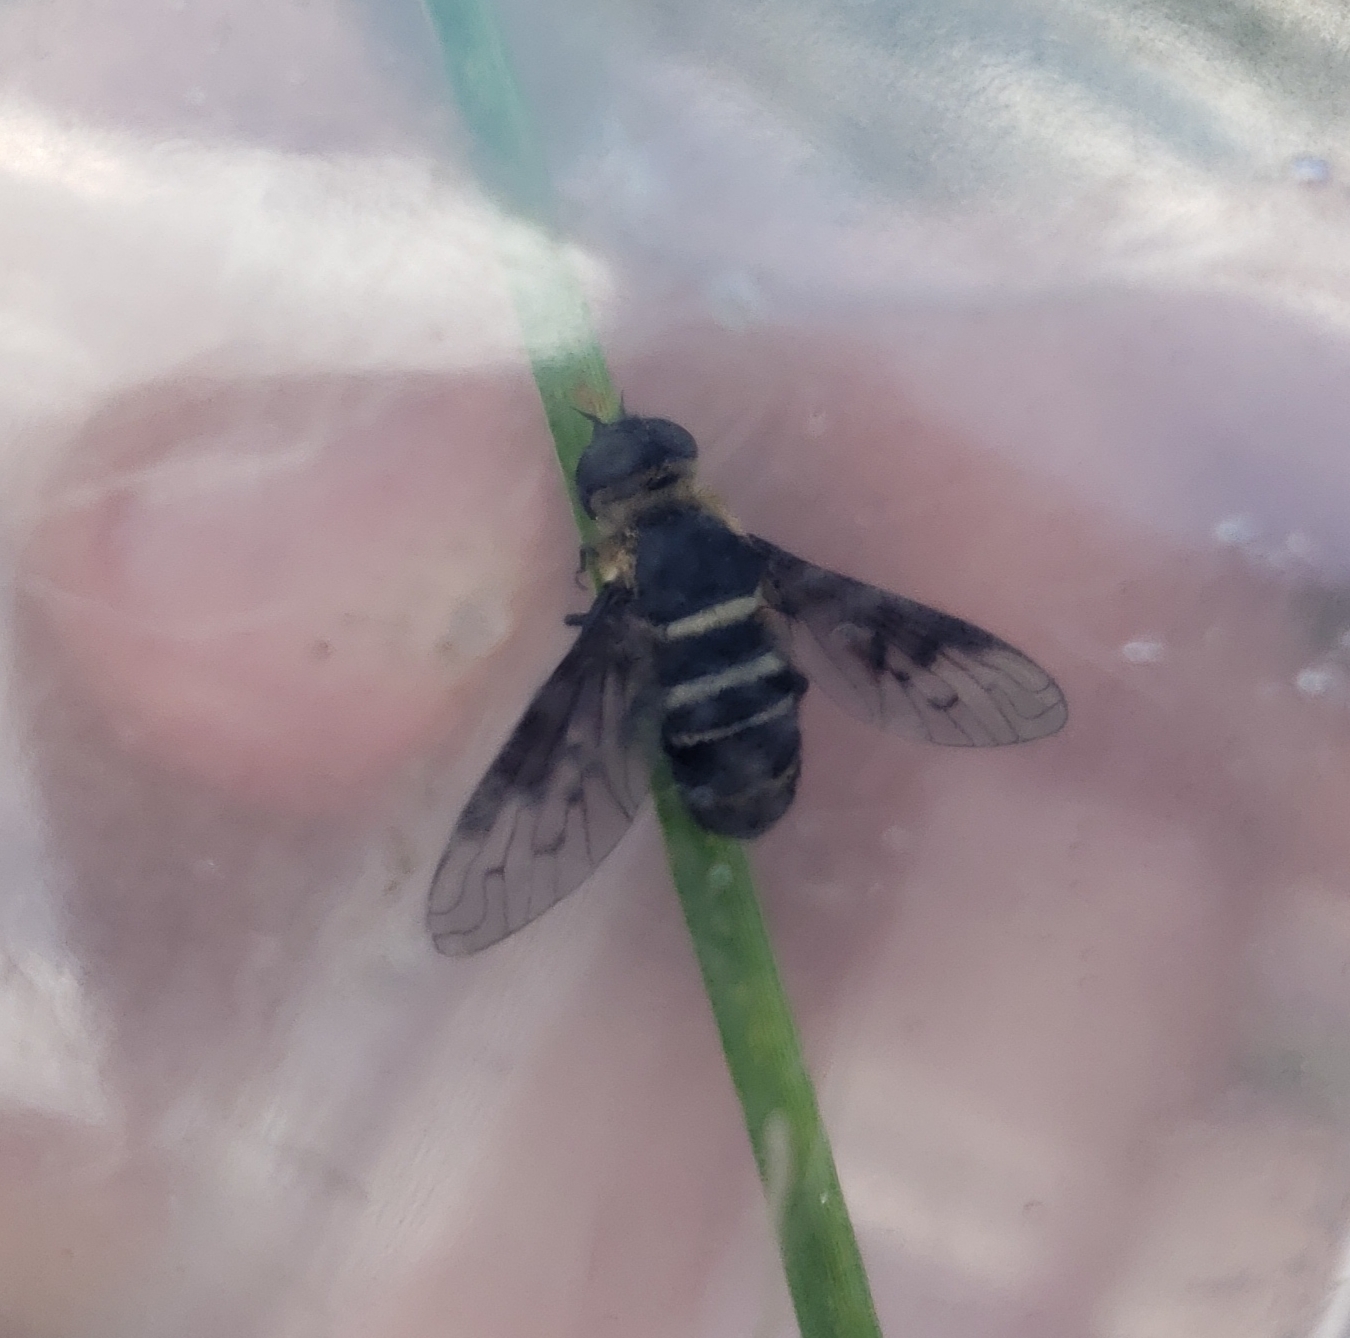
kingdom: Animalia
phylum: Arthropoda
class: Insecta
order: Diptera
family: Bombyliidae
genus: Chrysanthrax
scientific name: Chrysanthrax dispar
